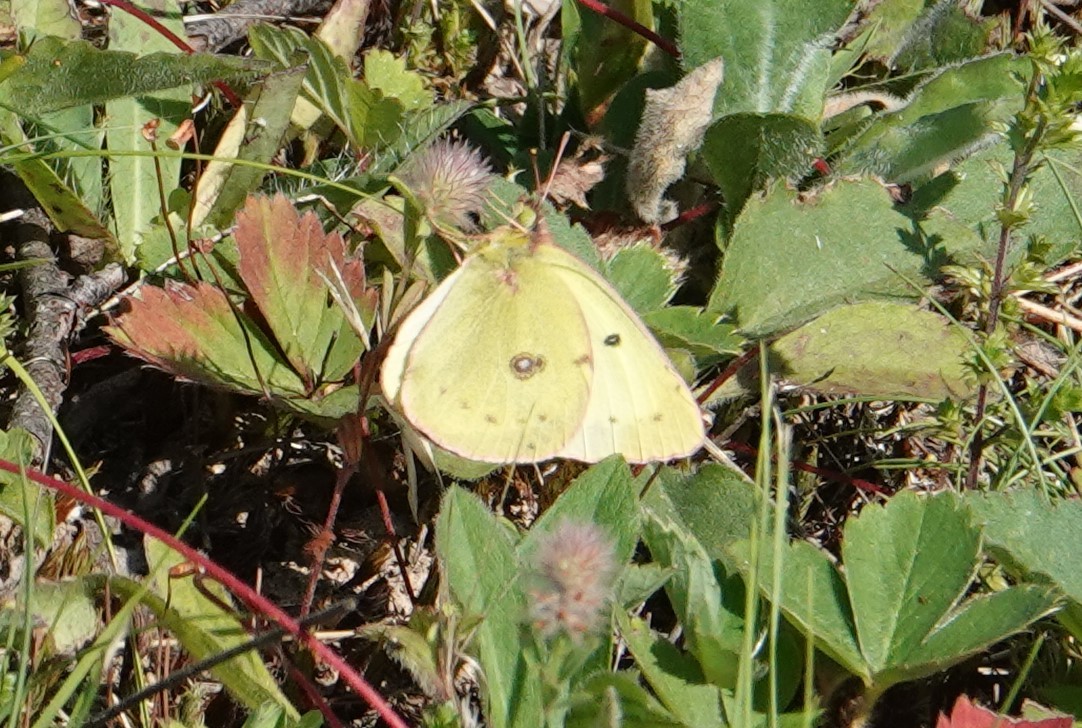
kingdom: Animalia
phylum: Arthropoda
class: Insecta
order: Lepidoptera
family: Pieridae
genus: Colias
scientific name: Colias philodice
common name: Clouded sulphur
